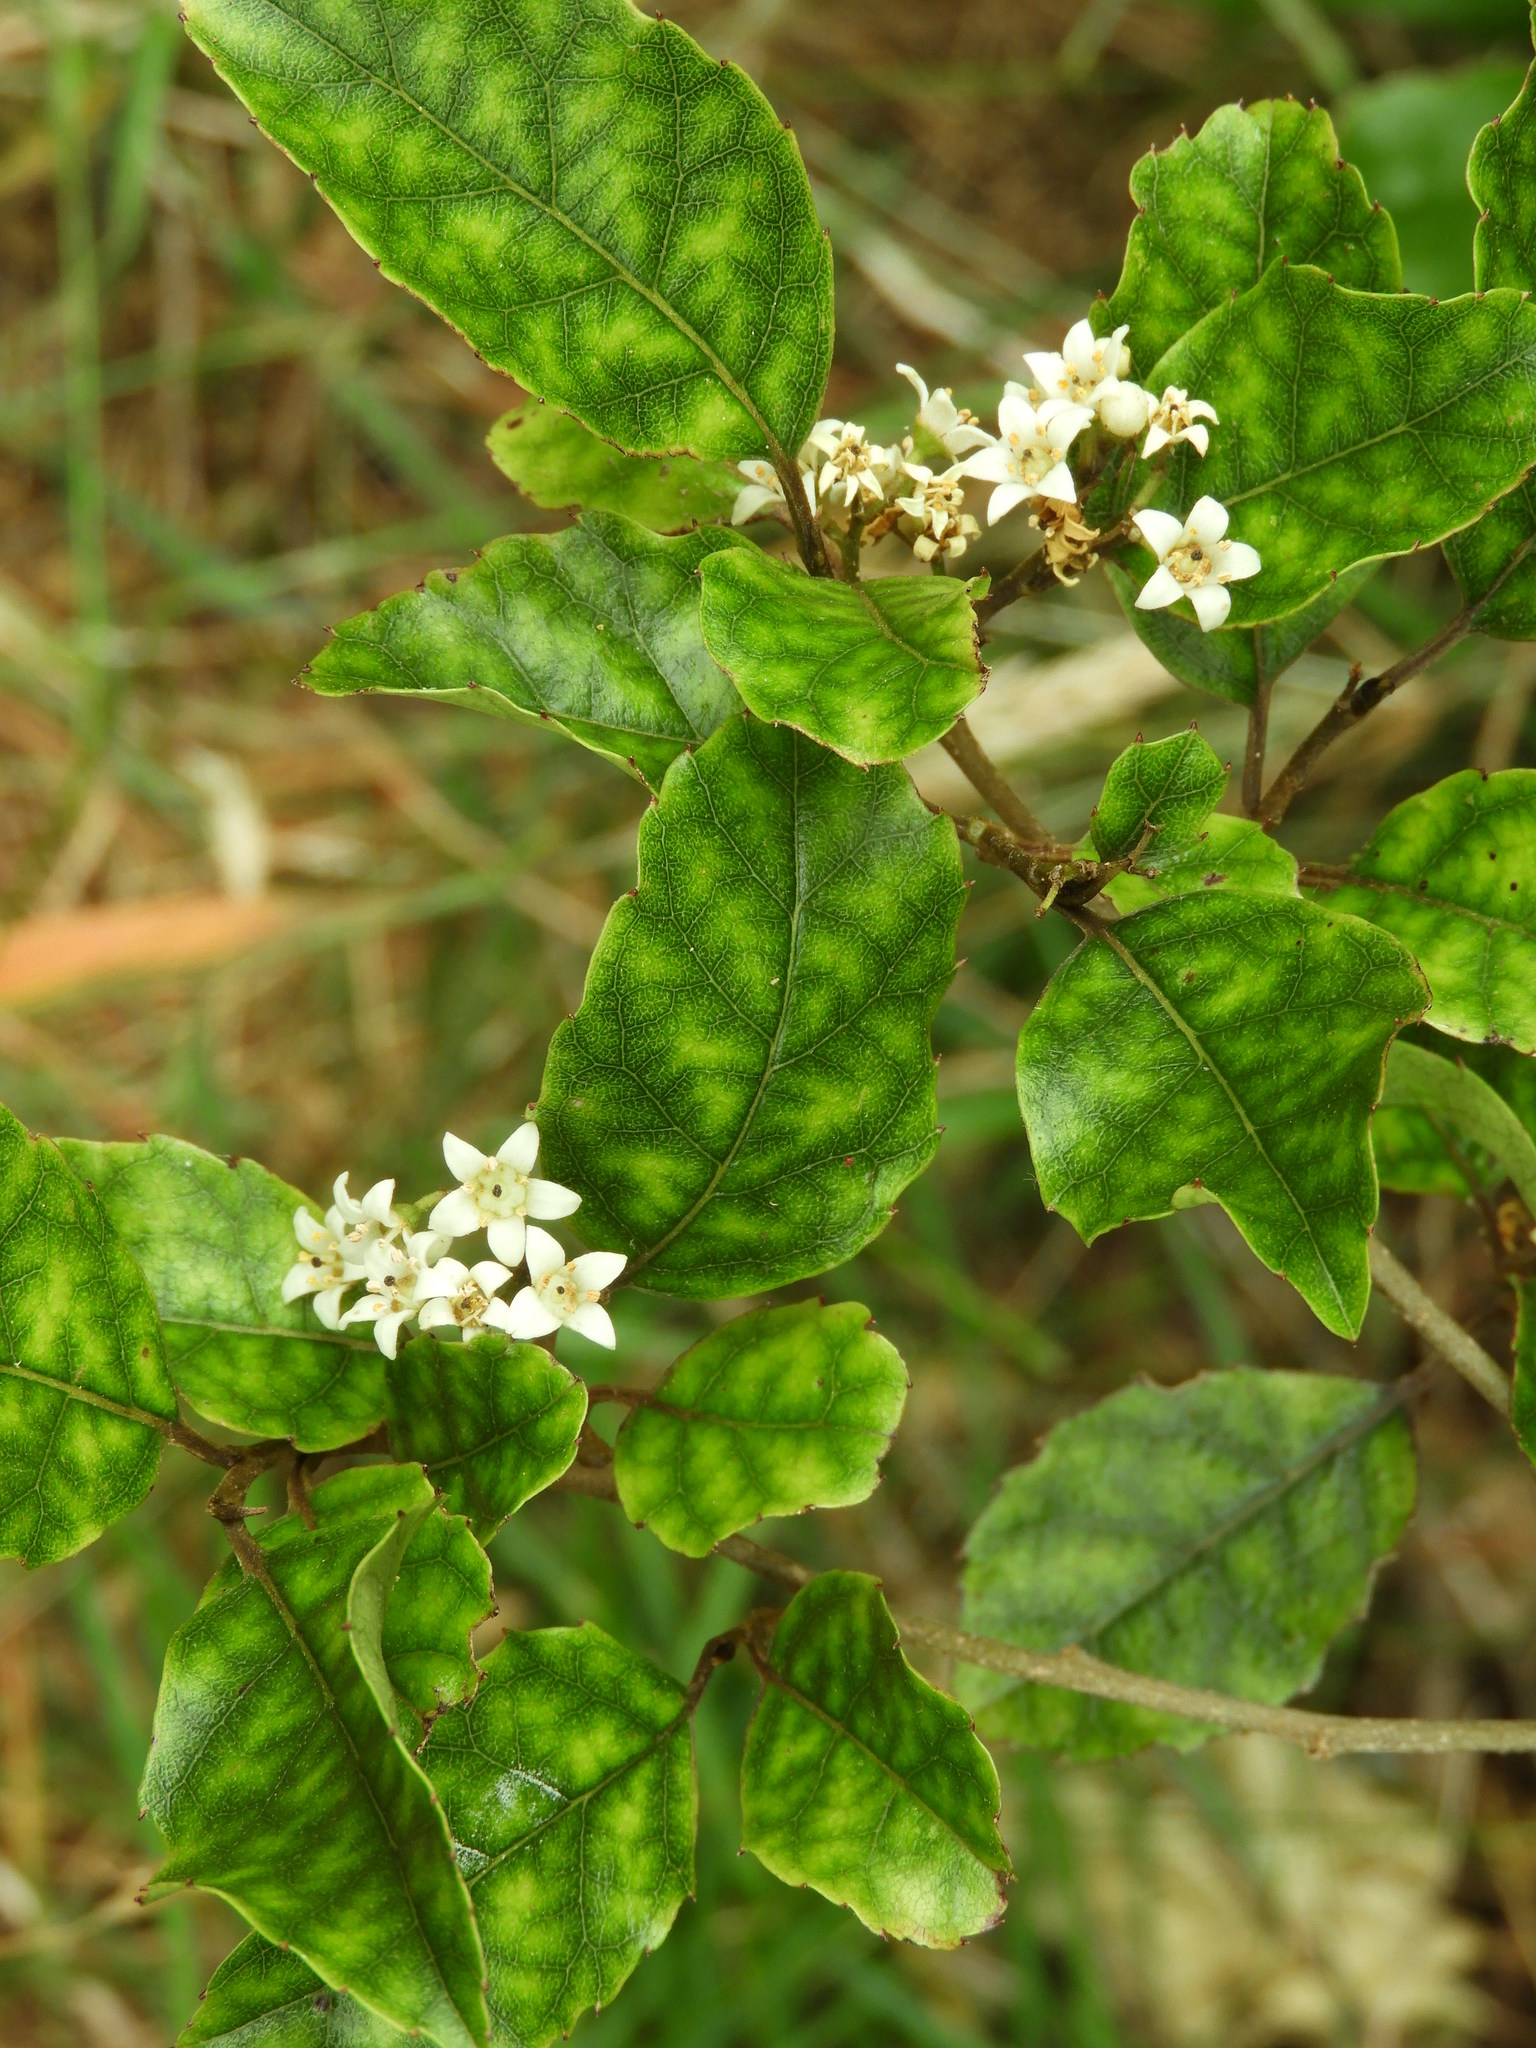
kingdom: Plantae
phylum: Tracheophyta
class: Magnoliopsida
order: Asterales
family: Rousseaceae
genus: Carpodetus
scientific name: Carpodetus serratus
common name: White mapau
